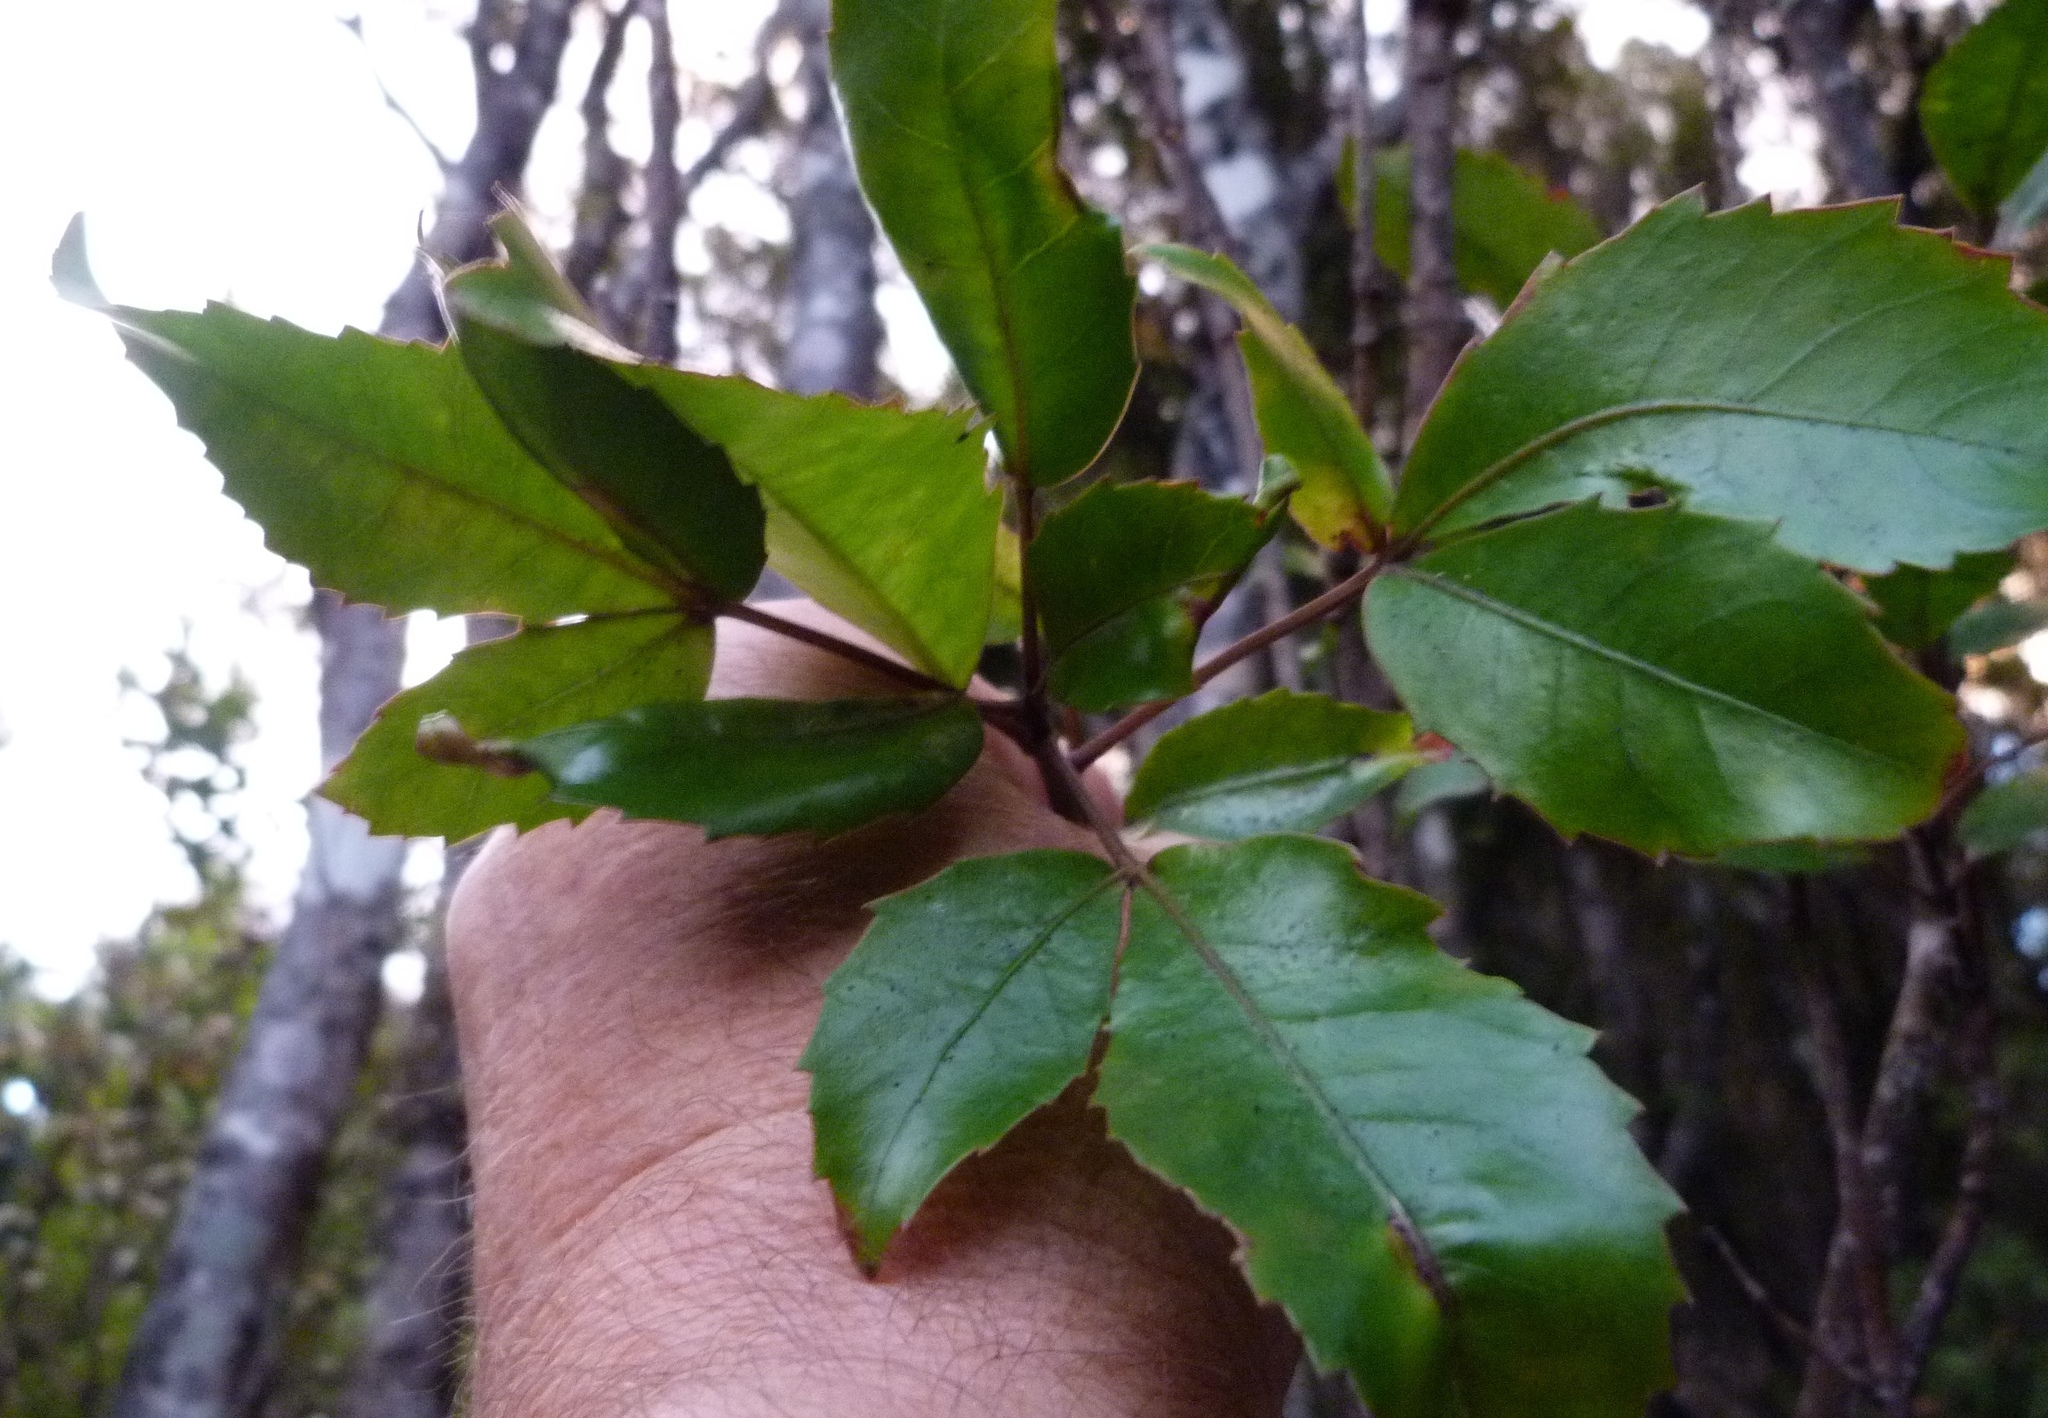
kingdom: Plantae
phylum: Tracheophyta
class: Magnoliopsida
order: Apiales
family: Araliaceae
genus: Raukaua
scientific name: Raukaua simplex
